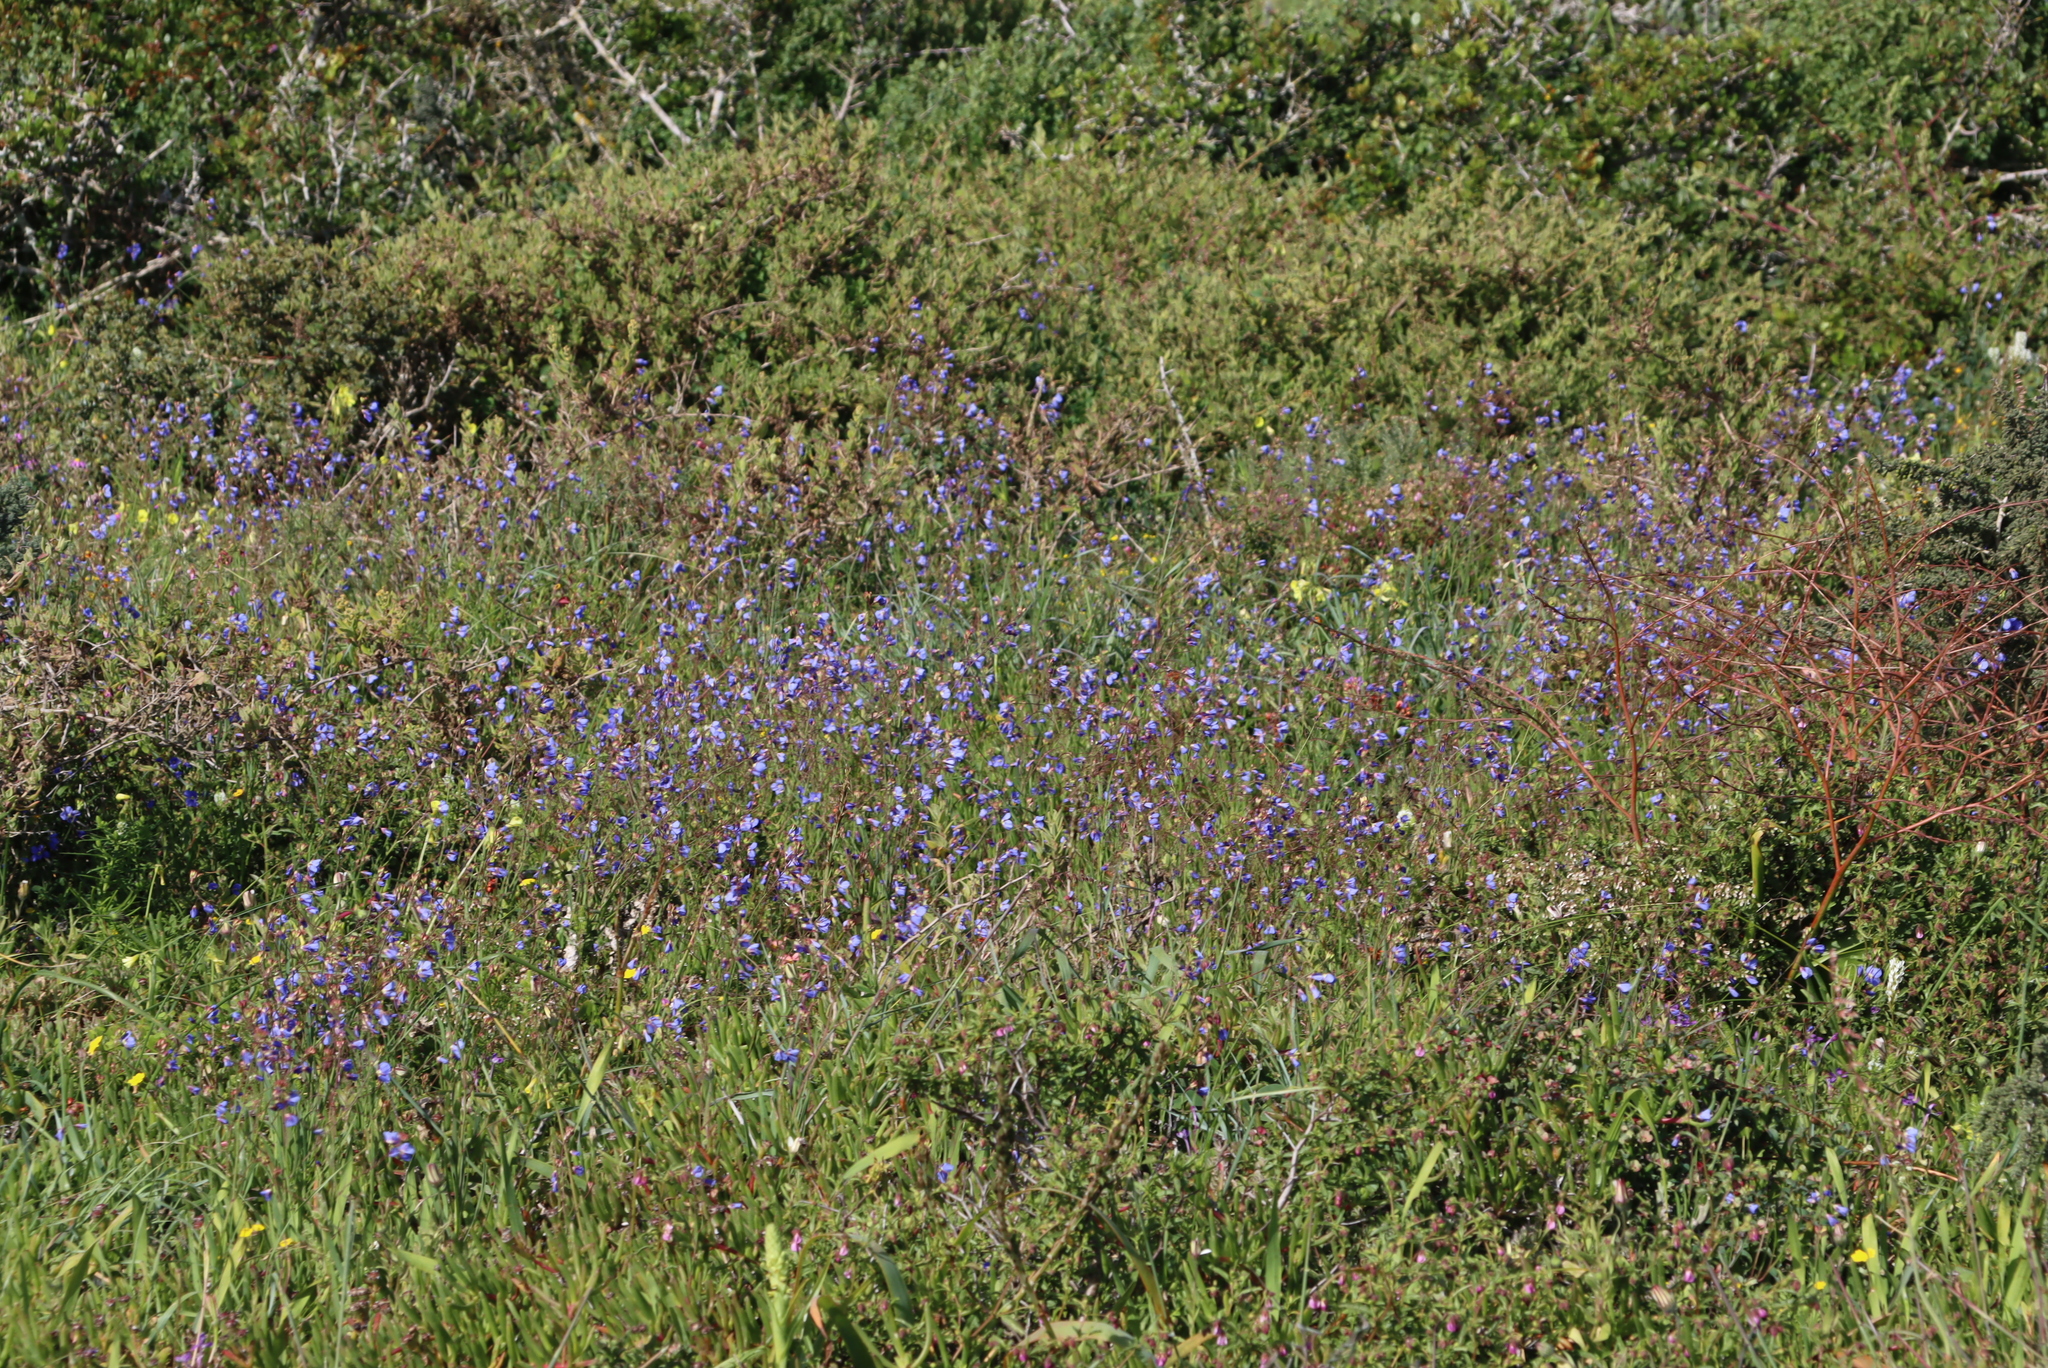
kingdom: Plantae
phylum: Tracheophyta
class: Magnoliopsida
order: Brassicales
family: Brassicaceae
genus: Heliophila
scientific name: Heliophila coronopifolia
